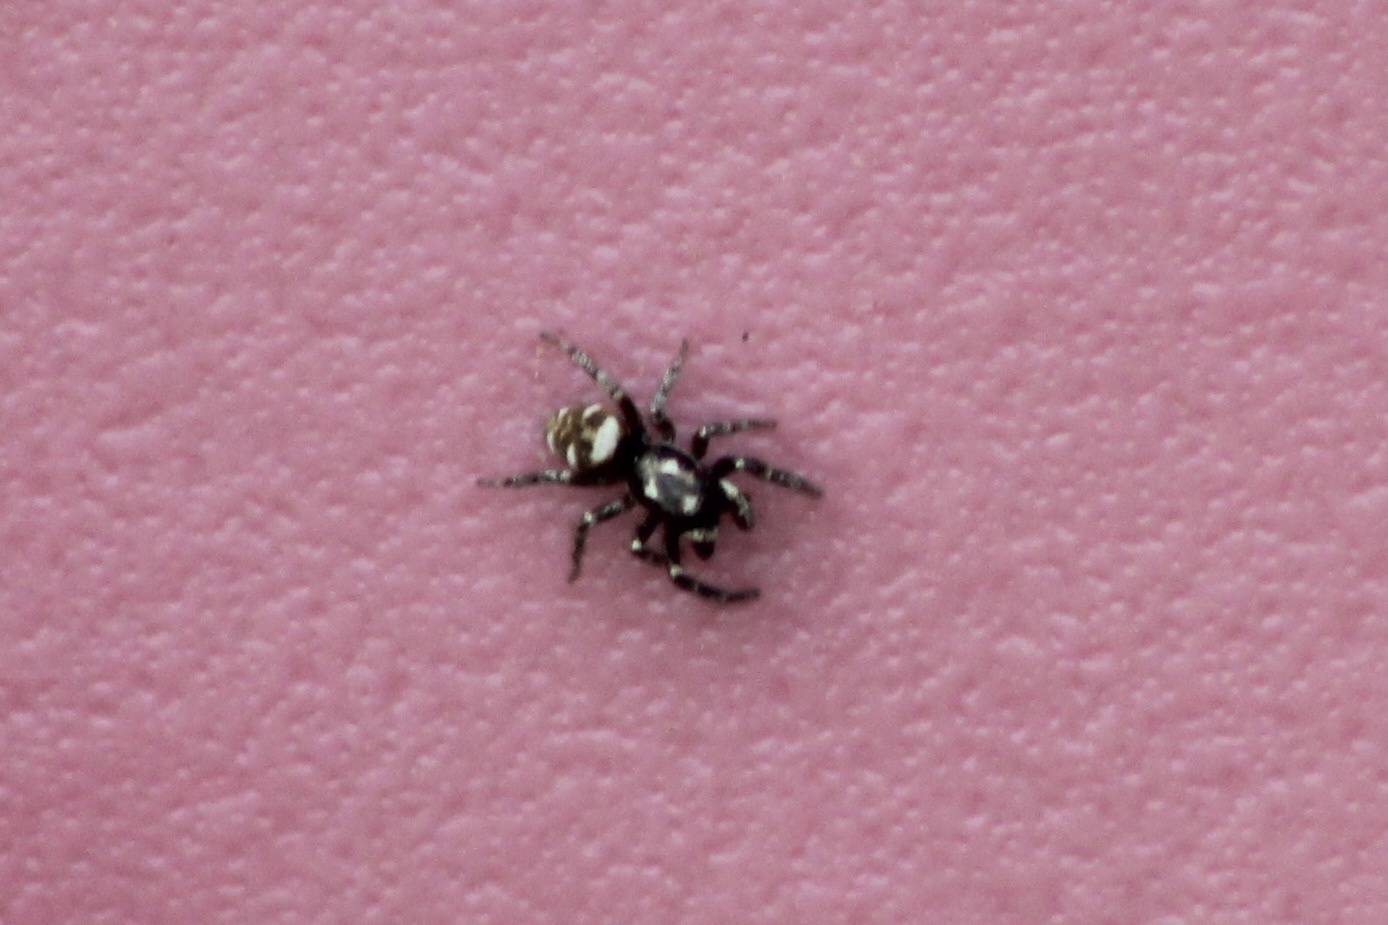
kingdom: Animalia
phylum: Arthropoda
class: Arachnida
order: Araneae
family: Salticidae
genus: Salticus
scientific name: Salticus scenicus
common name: Zebra jumper
